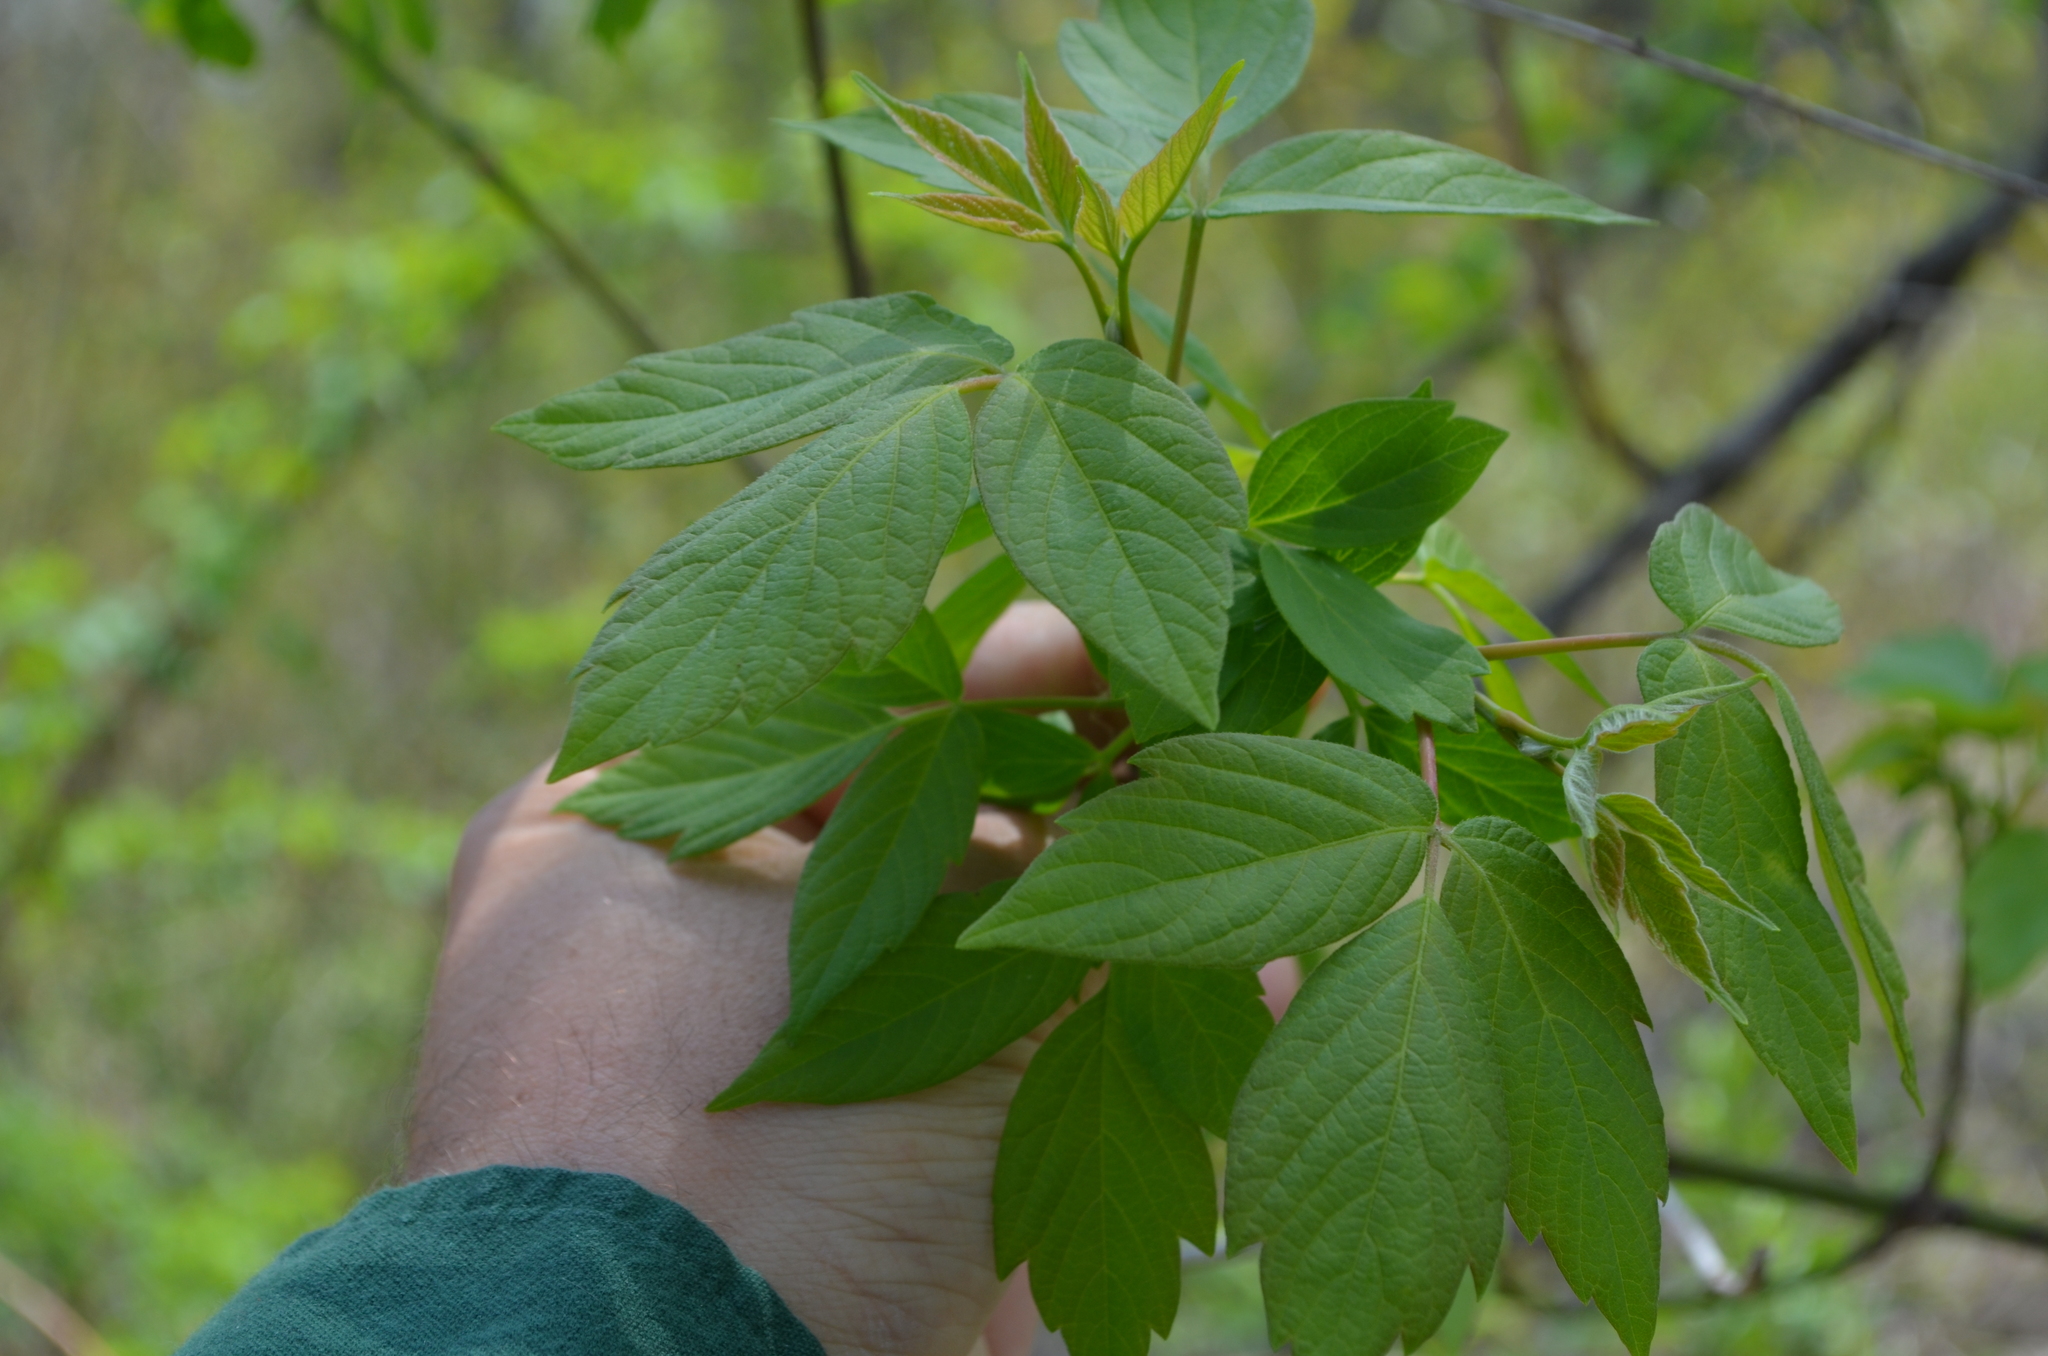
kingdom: Plantae
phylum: Tracheophyta
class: Magnoliopsida
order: Sapindales
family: Sapindaceae
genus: Acer
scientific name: Acer negundo
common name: Ashleaf maple
